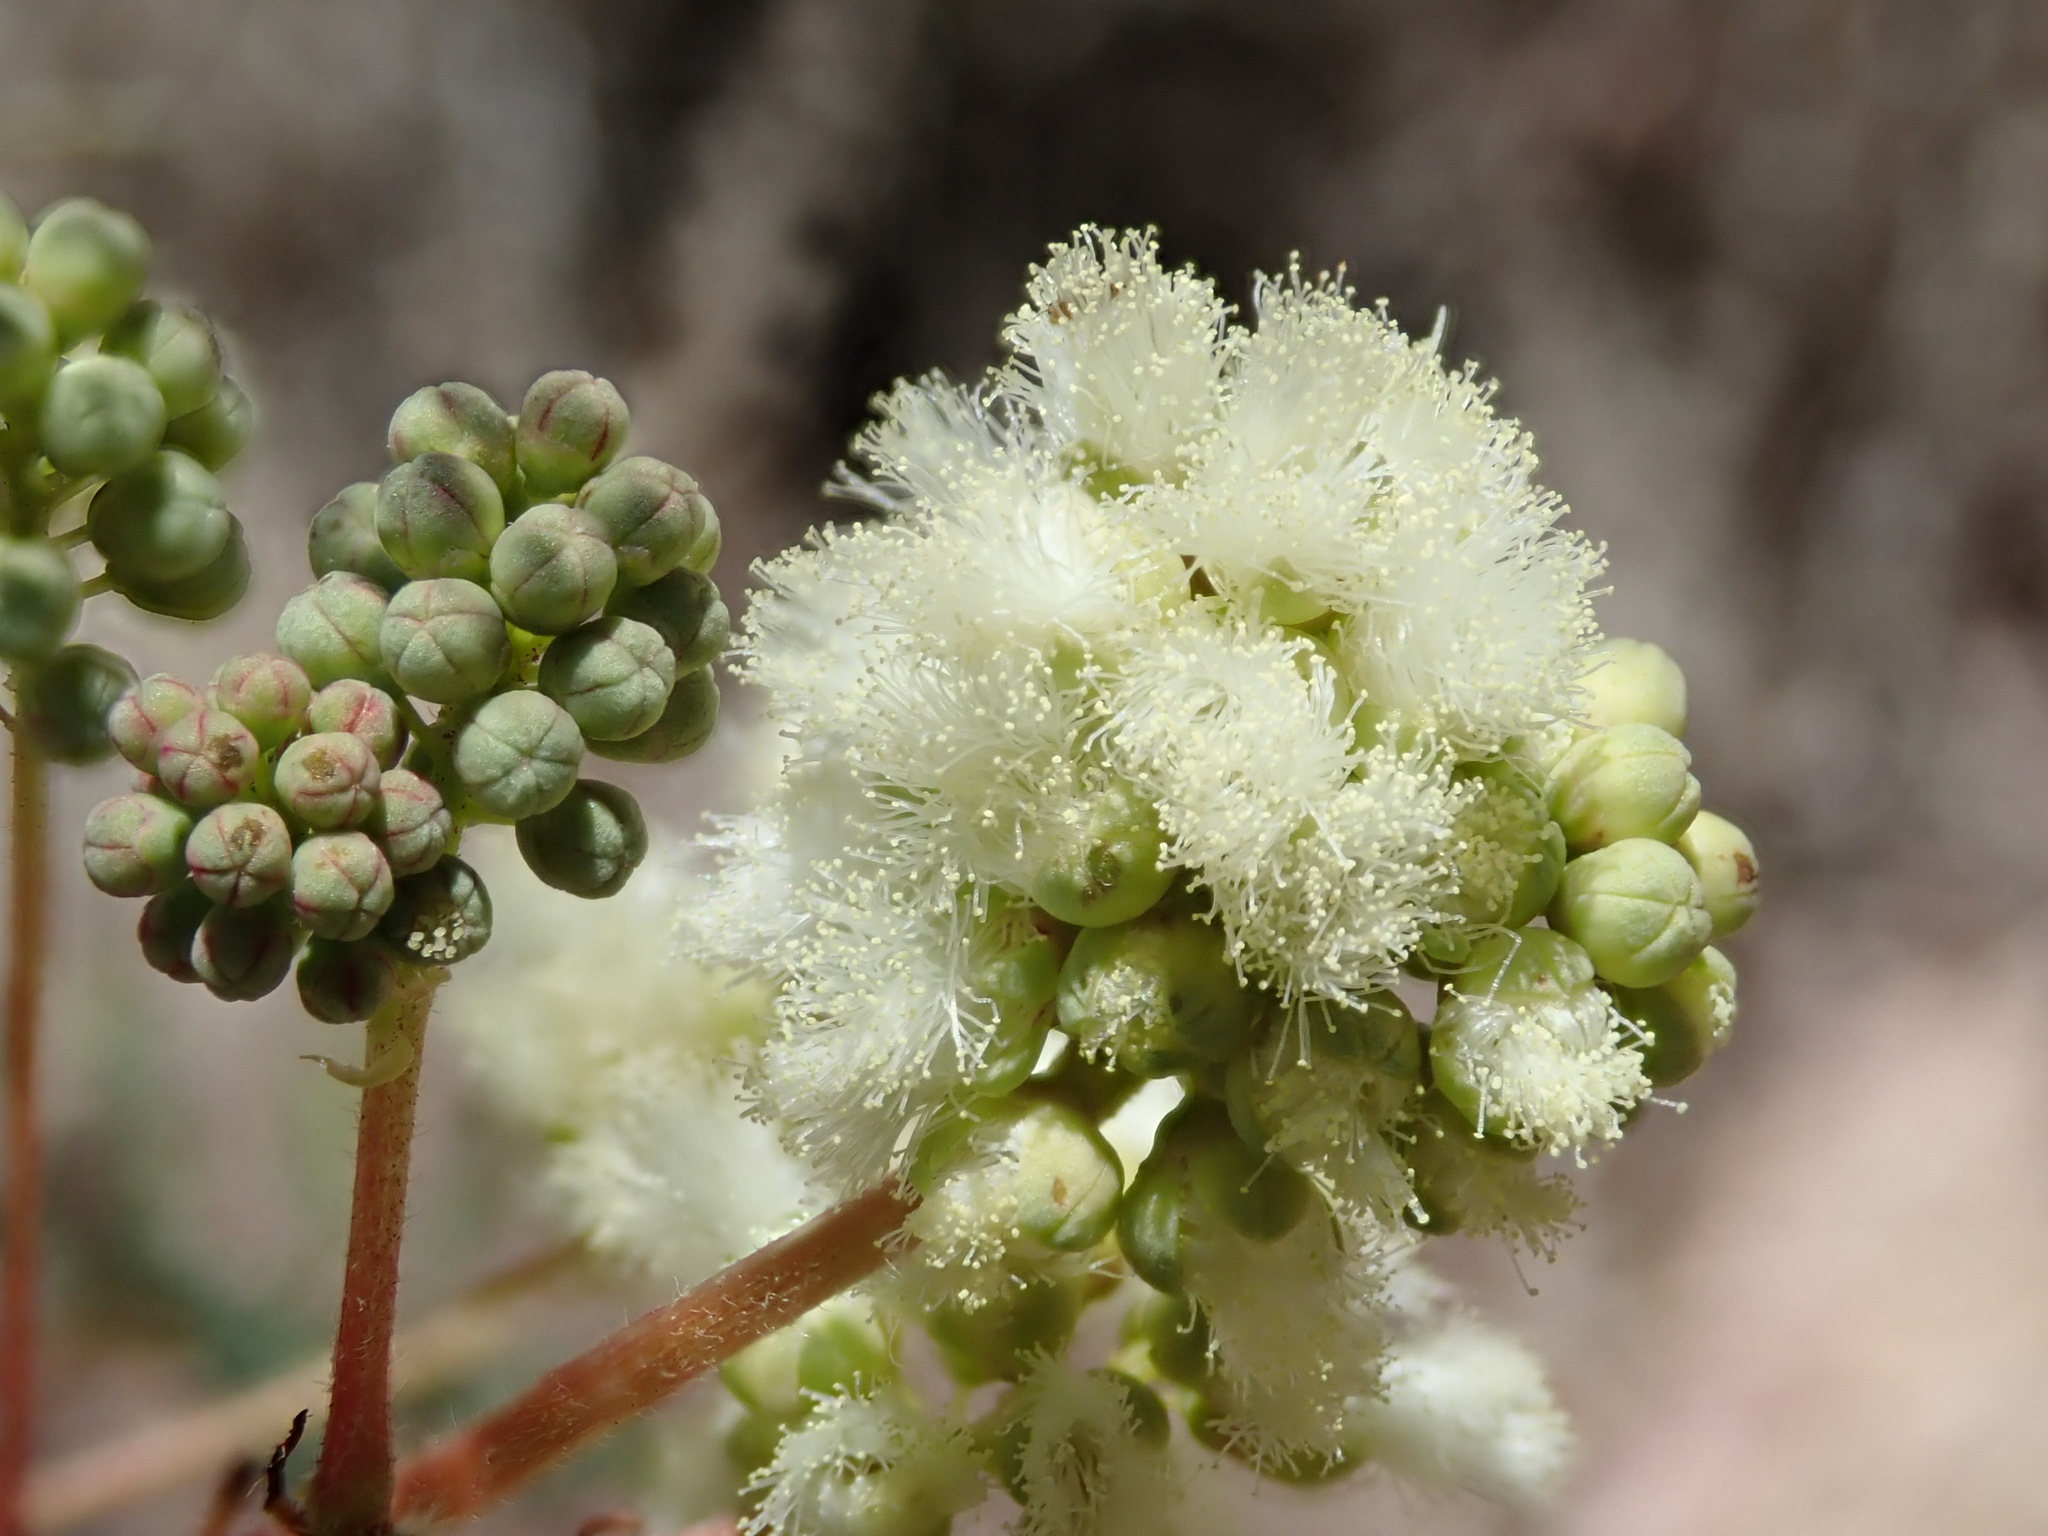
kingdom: Plantae
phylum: Tracheophyta
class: Magnoliopsida
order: Fabales
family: Fabaceae
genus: Acaciella
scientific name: Acaciella angustissima
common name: Prairie acacia
